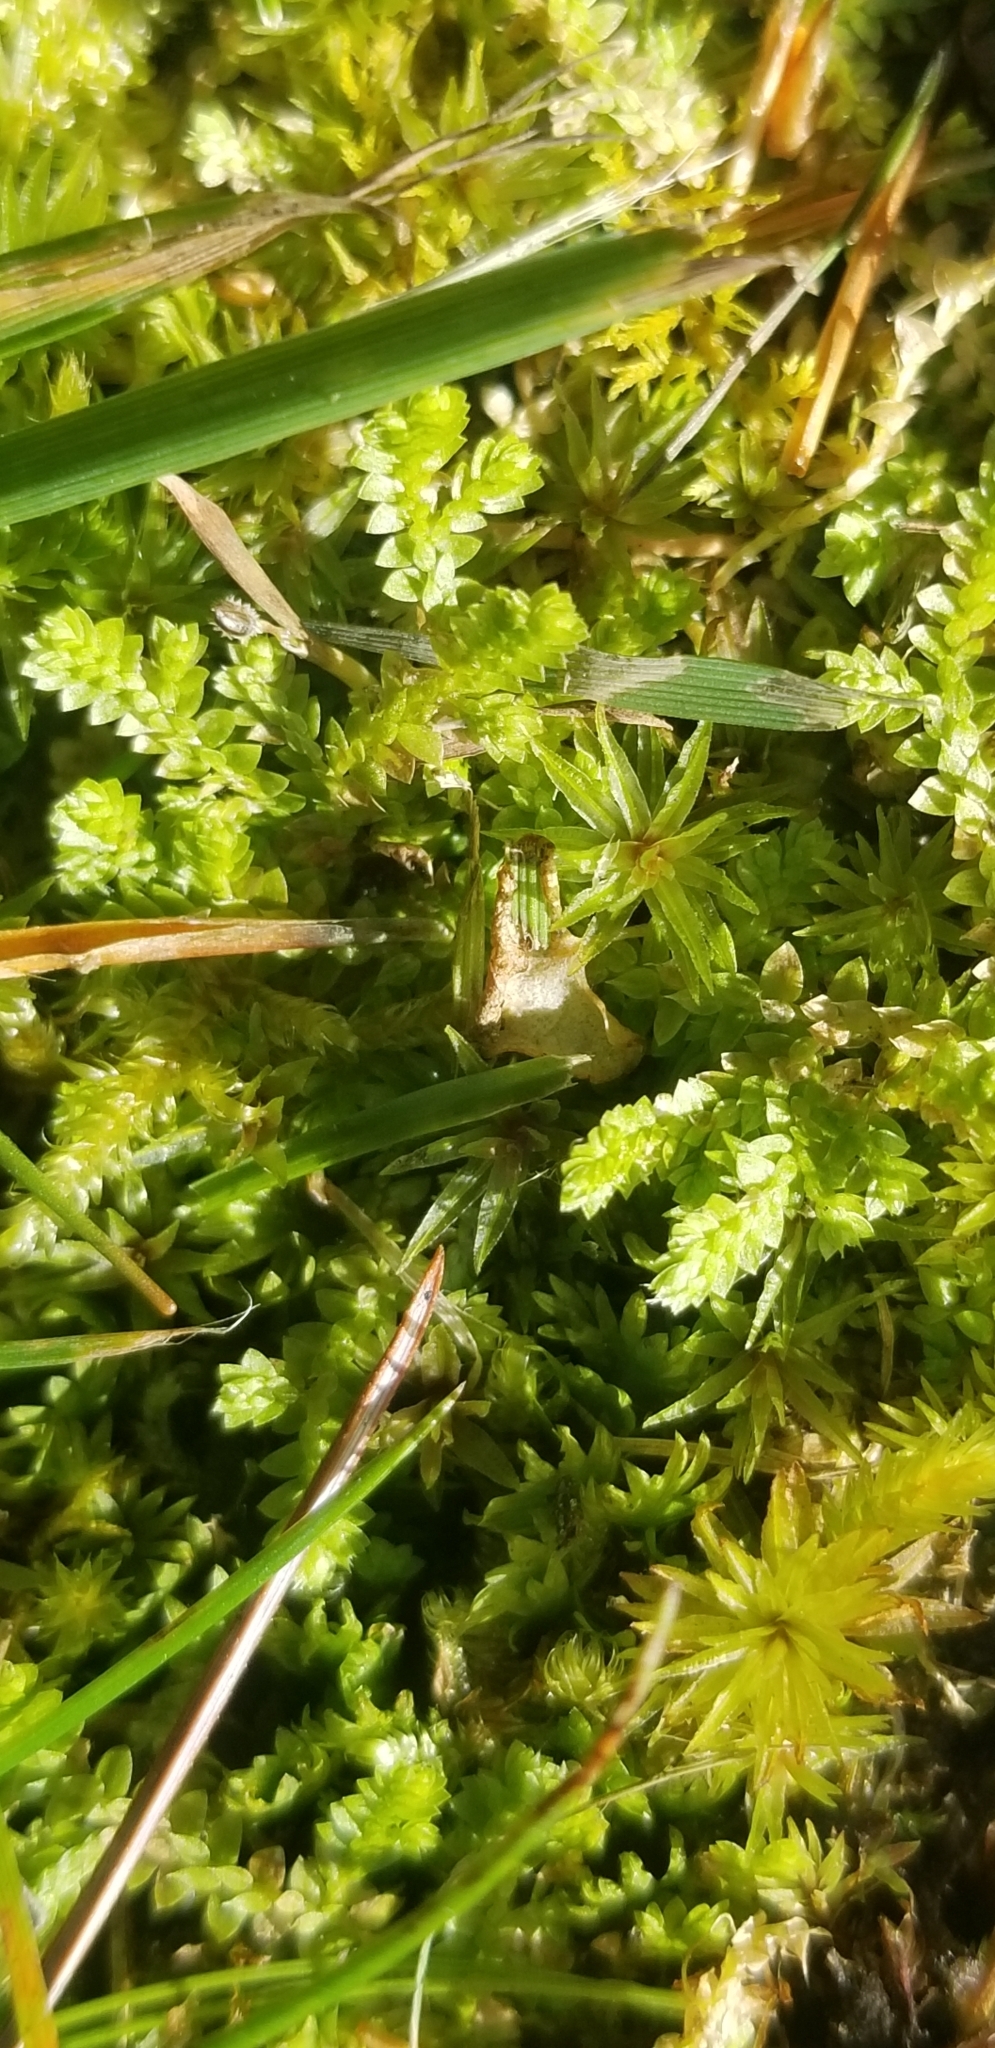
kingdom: Plantae
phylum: Tracheophyta
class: Lycopodiopsida
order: Selaginellales
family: Selaginellaceae
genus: Selaginella
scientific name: Selaginella apoda
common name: Creeping spikemoss
